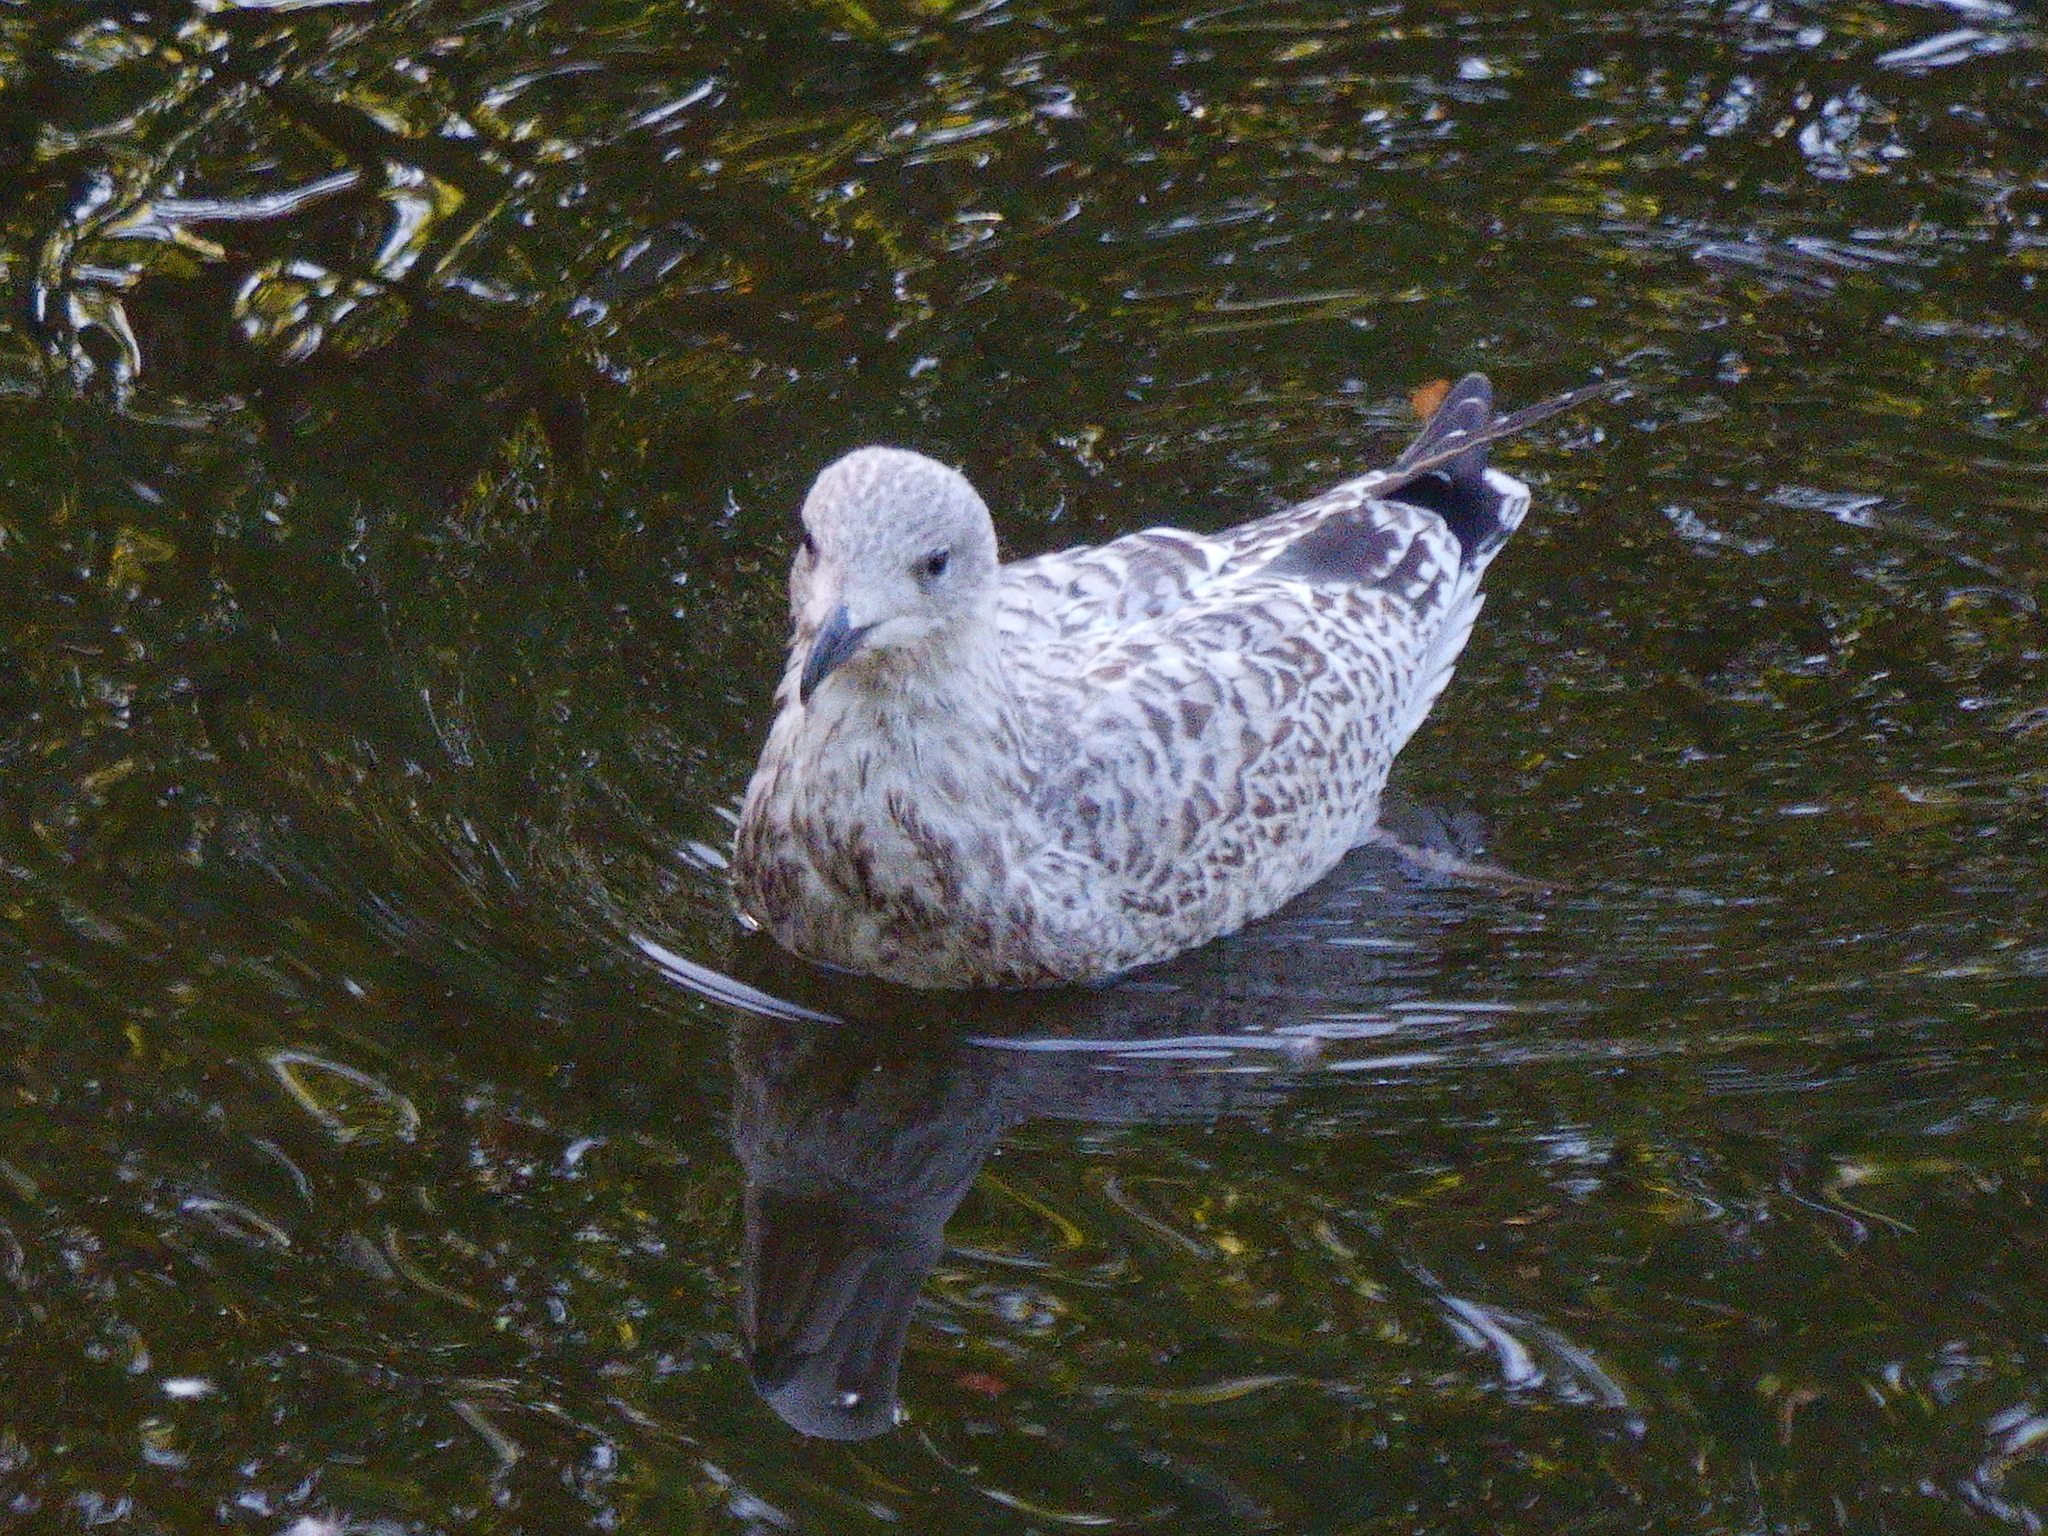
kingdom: Animalia
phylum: Chordata
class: Aves
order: Charadriiformes
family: Laridae
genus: Larus
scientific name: Larus argentatus
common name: Herring gull
